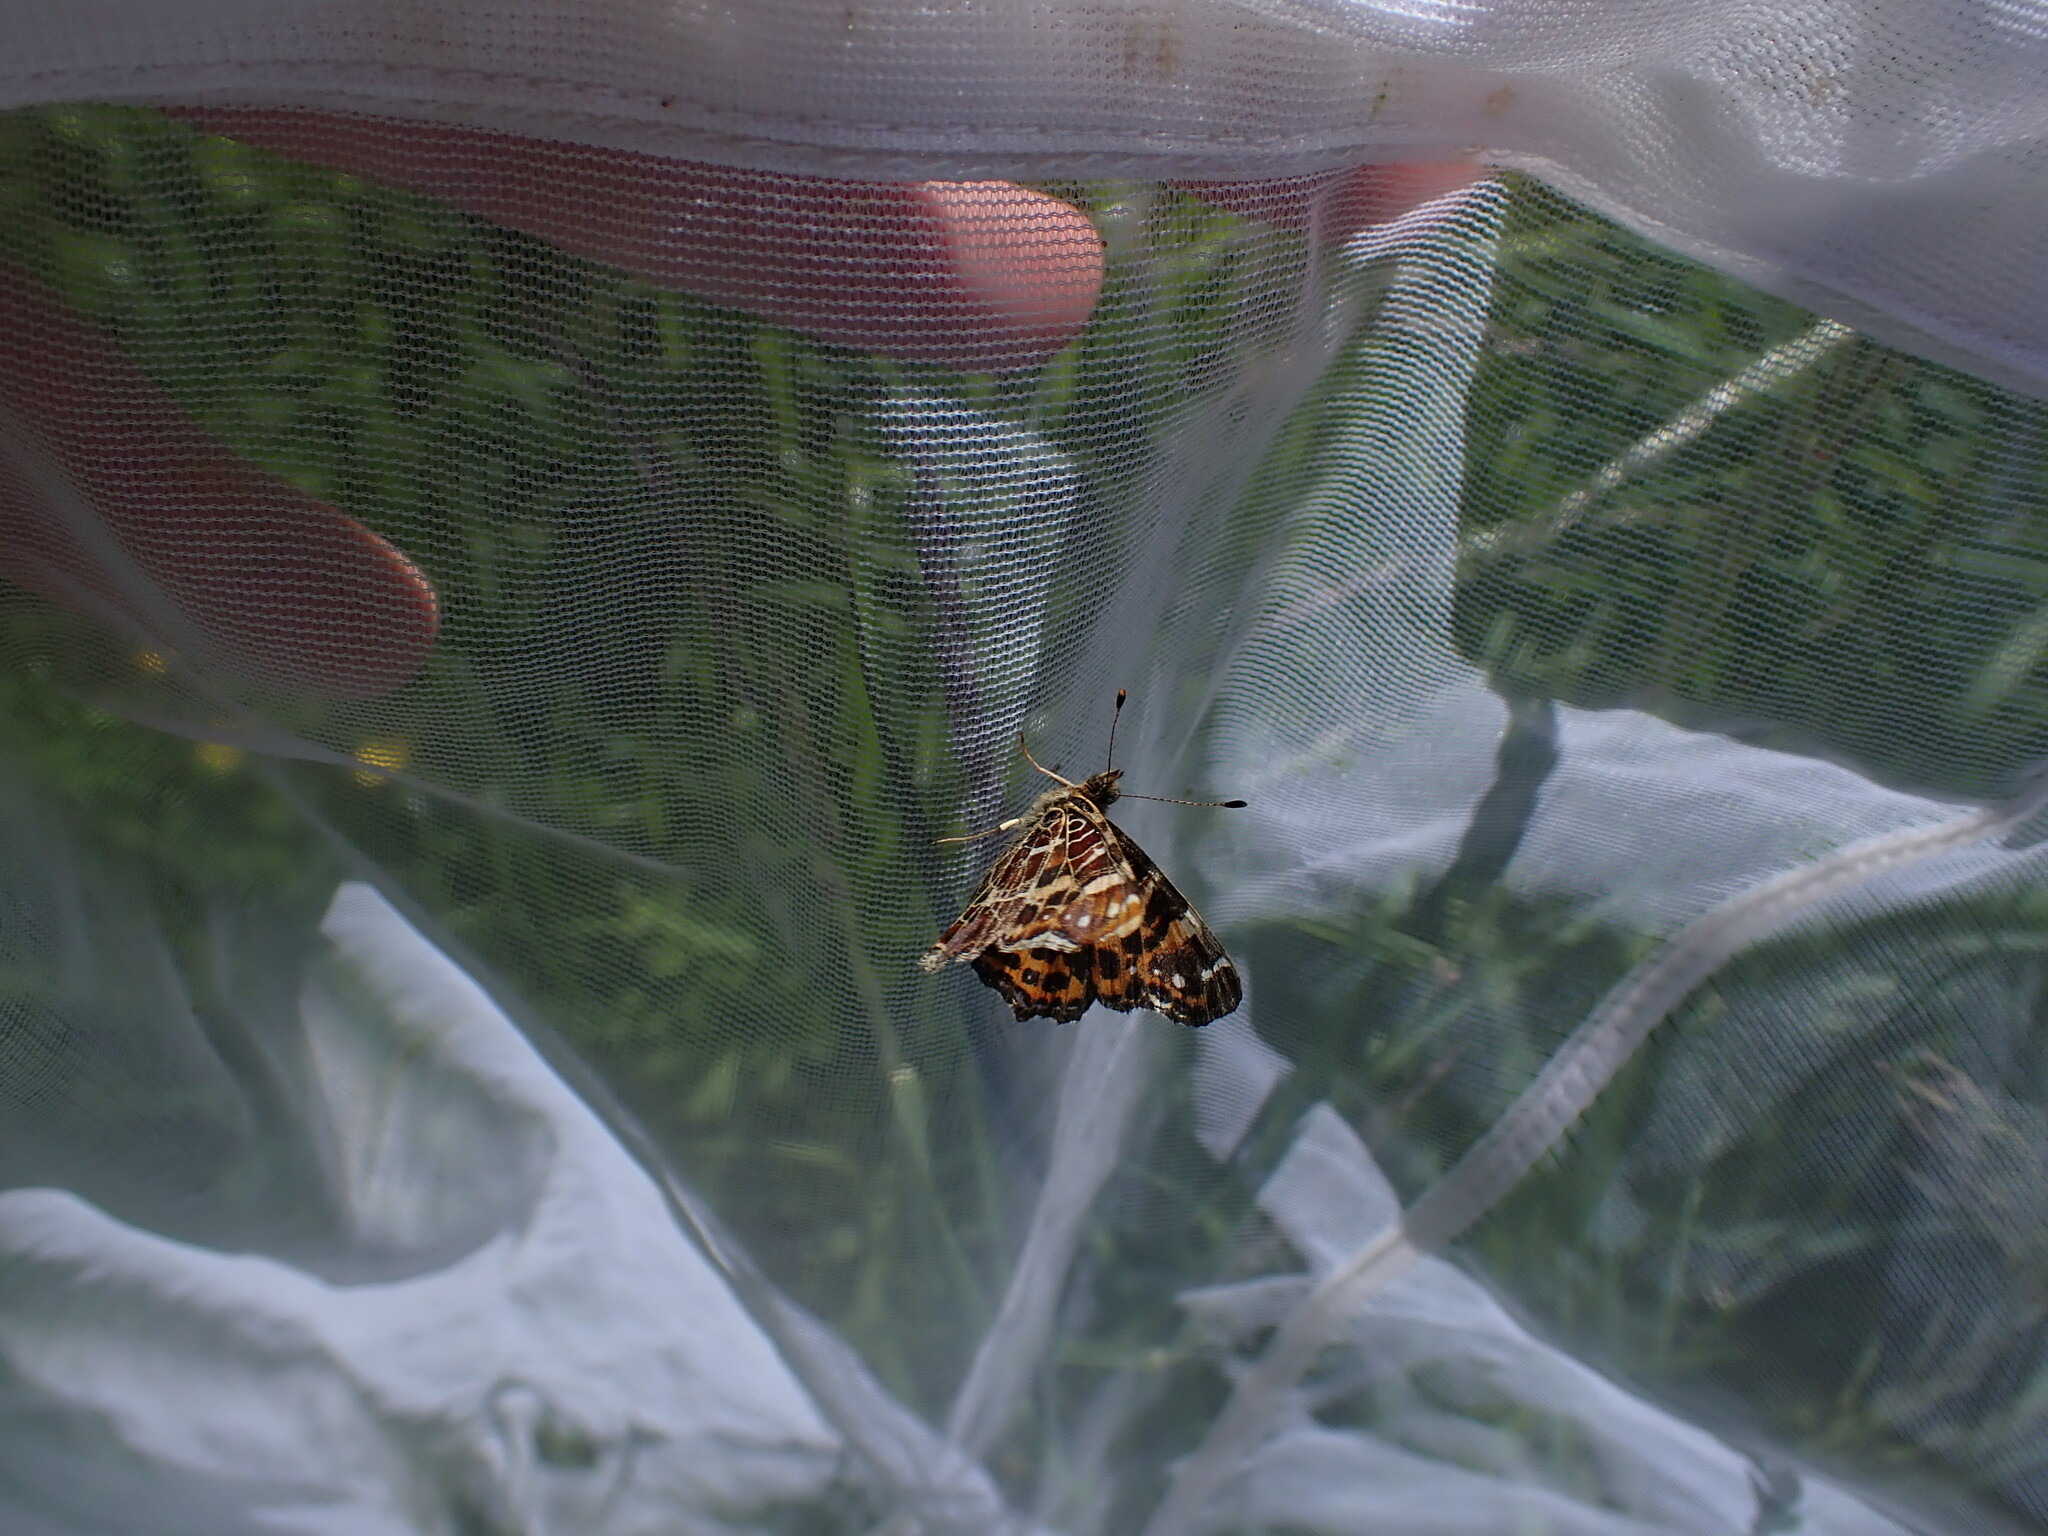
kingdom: Animalia
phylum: Arthropoda
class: Insecta
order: Lepidoptera
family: Nymphalidae
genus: Araschnia
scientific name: Araschnia levana
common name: Map butterfly
